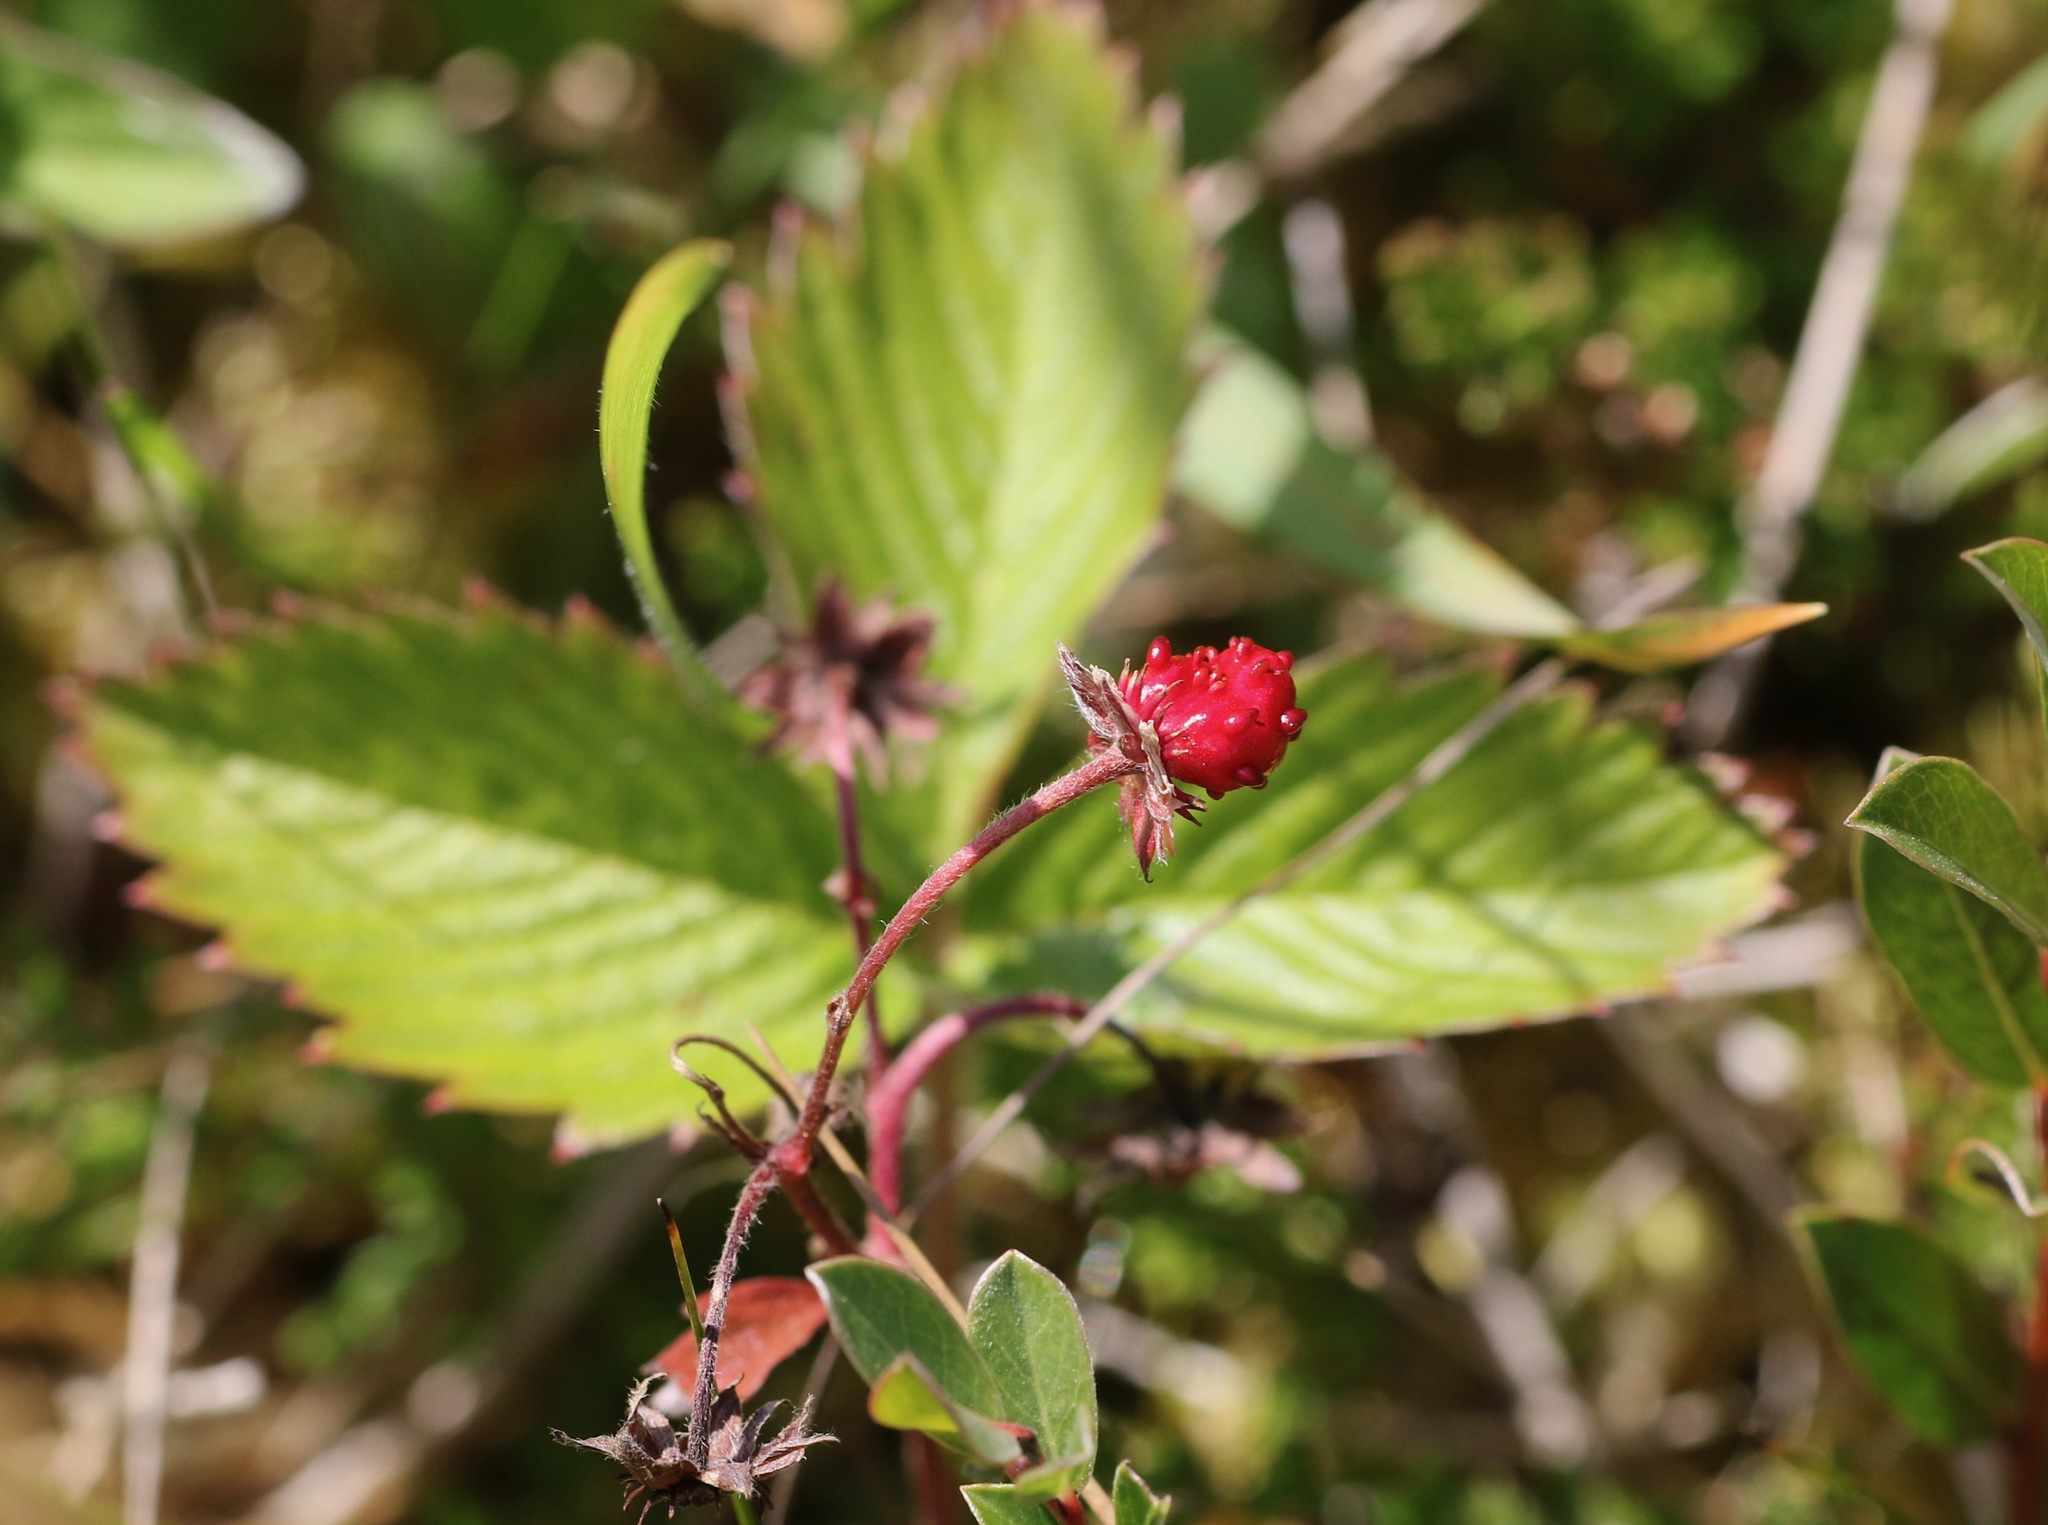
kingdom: Plantae
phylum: Tracheophyta
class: Magnoliopsida
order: Rosales
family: Rosaceae
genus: Fragaria
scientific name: Fragaria vesca
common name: Wild strawberry
